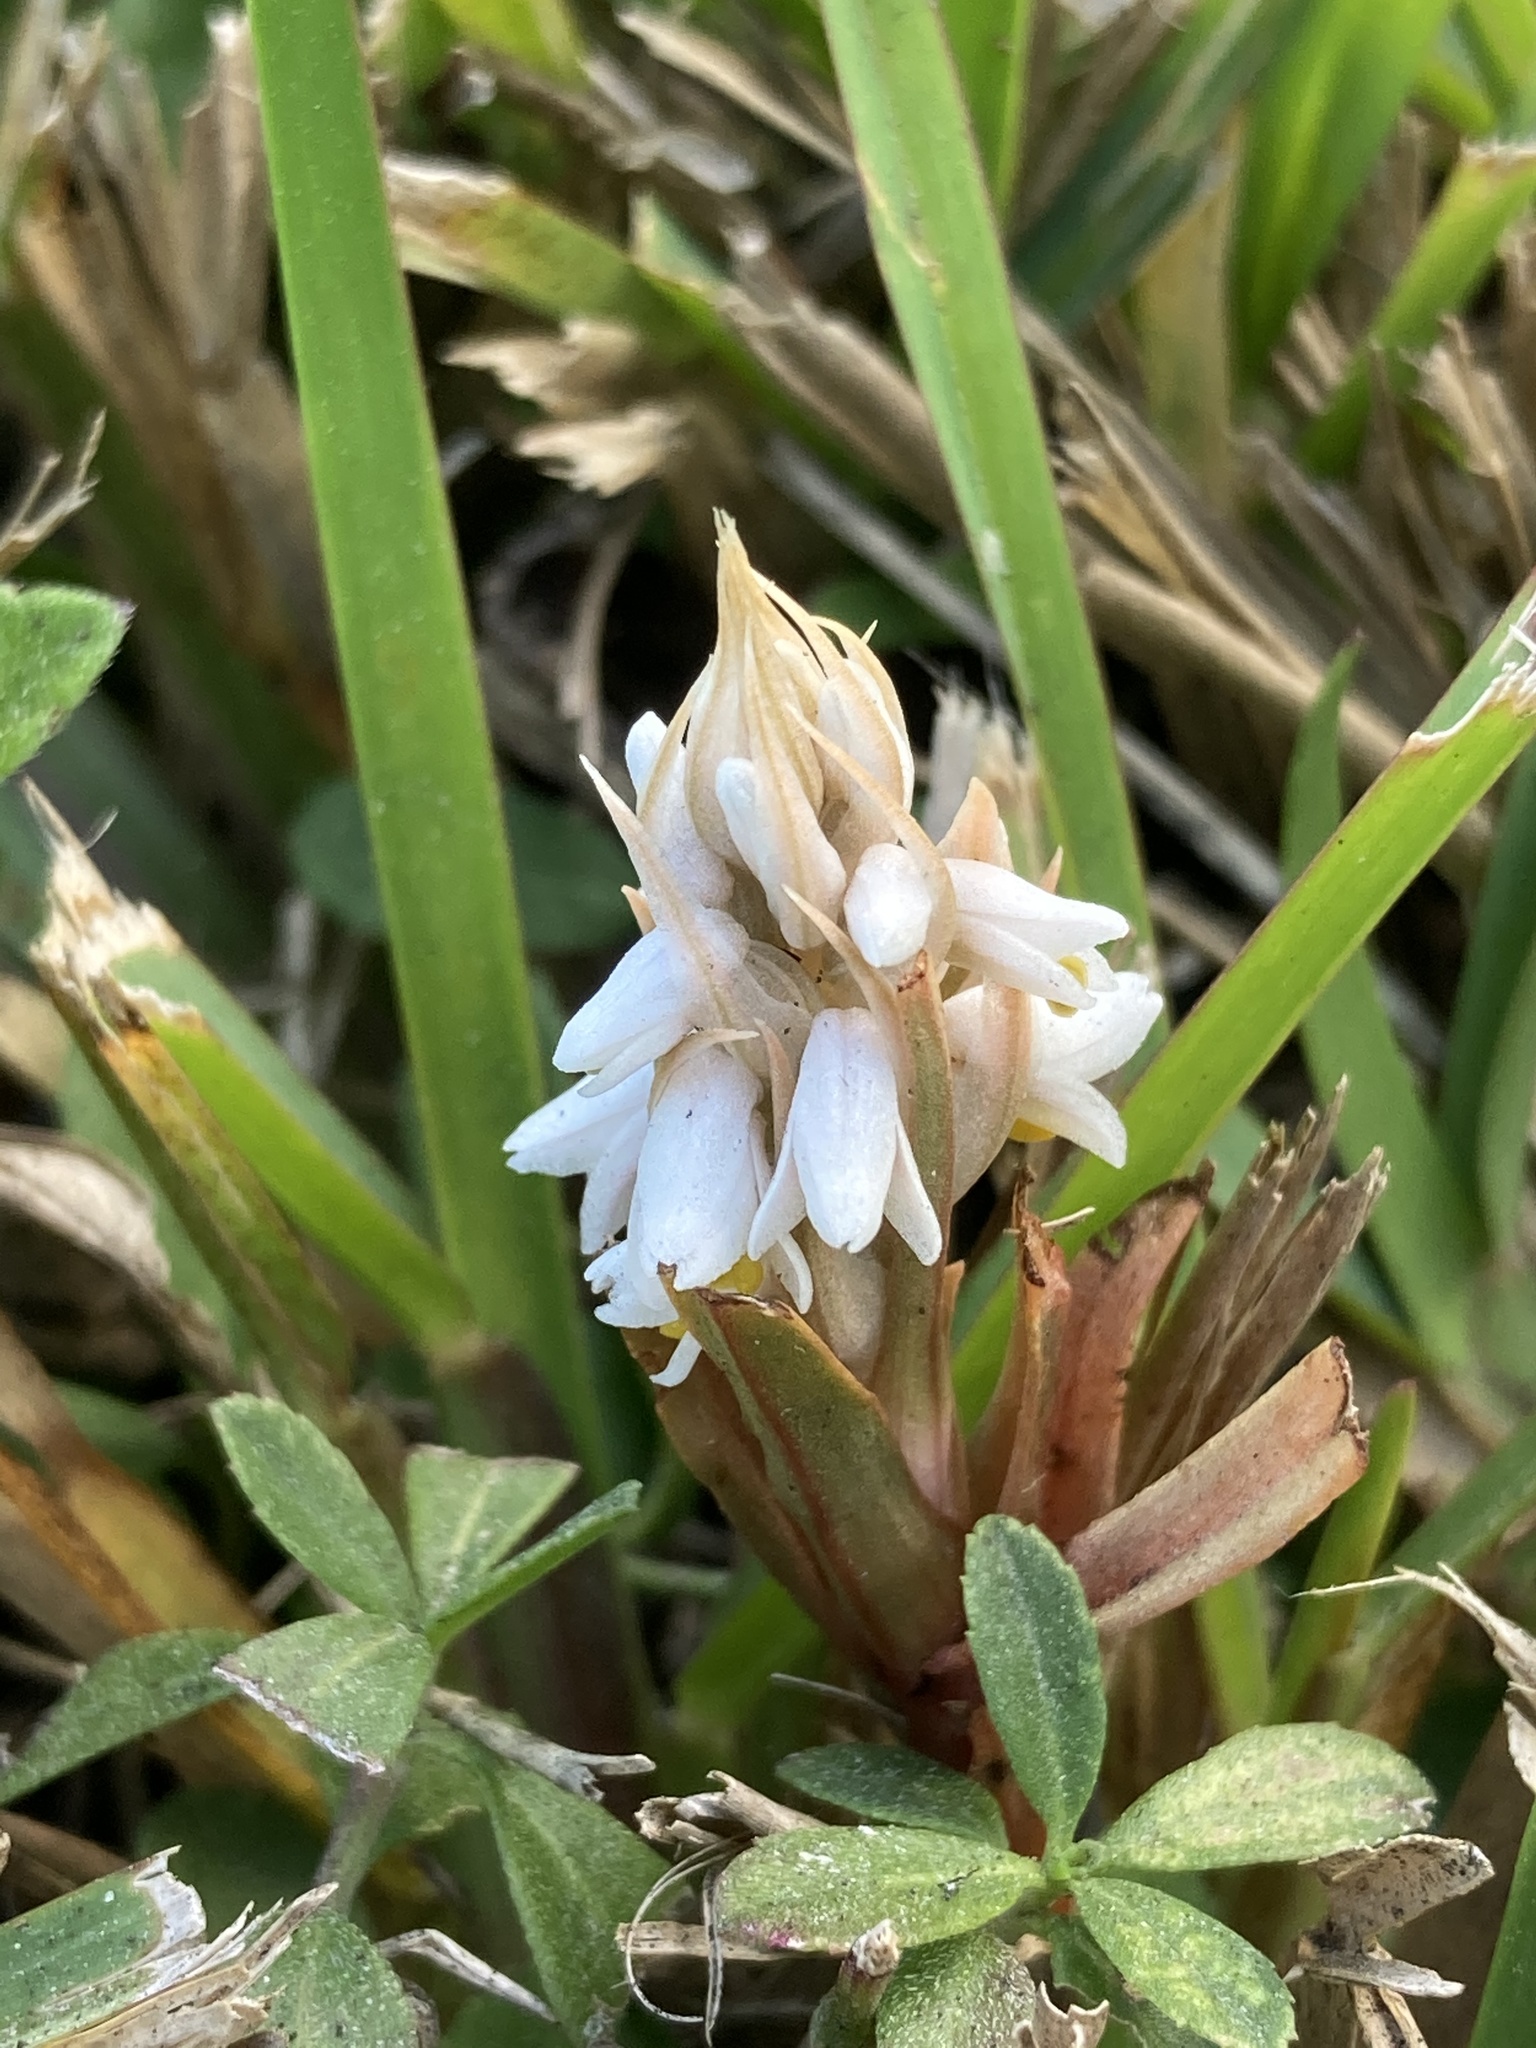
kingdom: Plantae
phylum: Tracheophyta
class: Liliopsida
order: Asparagales
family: Orchidaceae
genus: Zeuxine
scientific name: Zeuxine strateumatica
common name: Soldier's orchid
